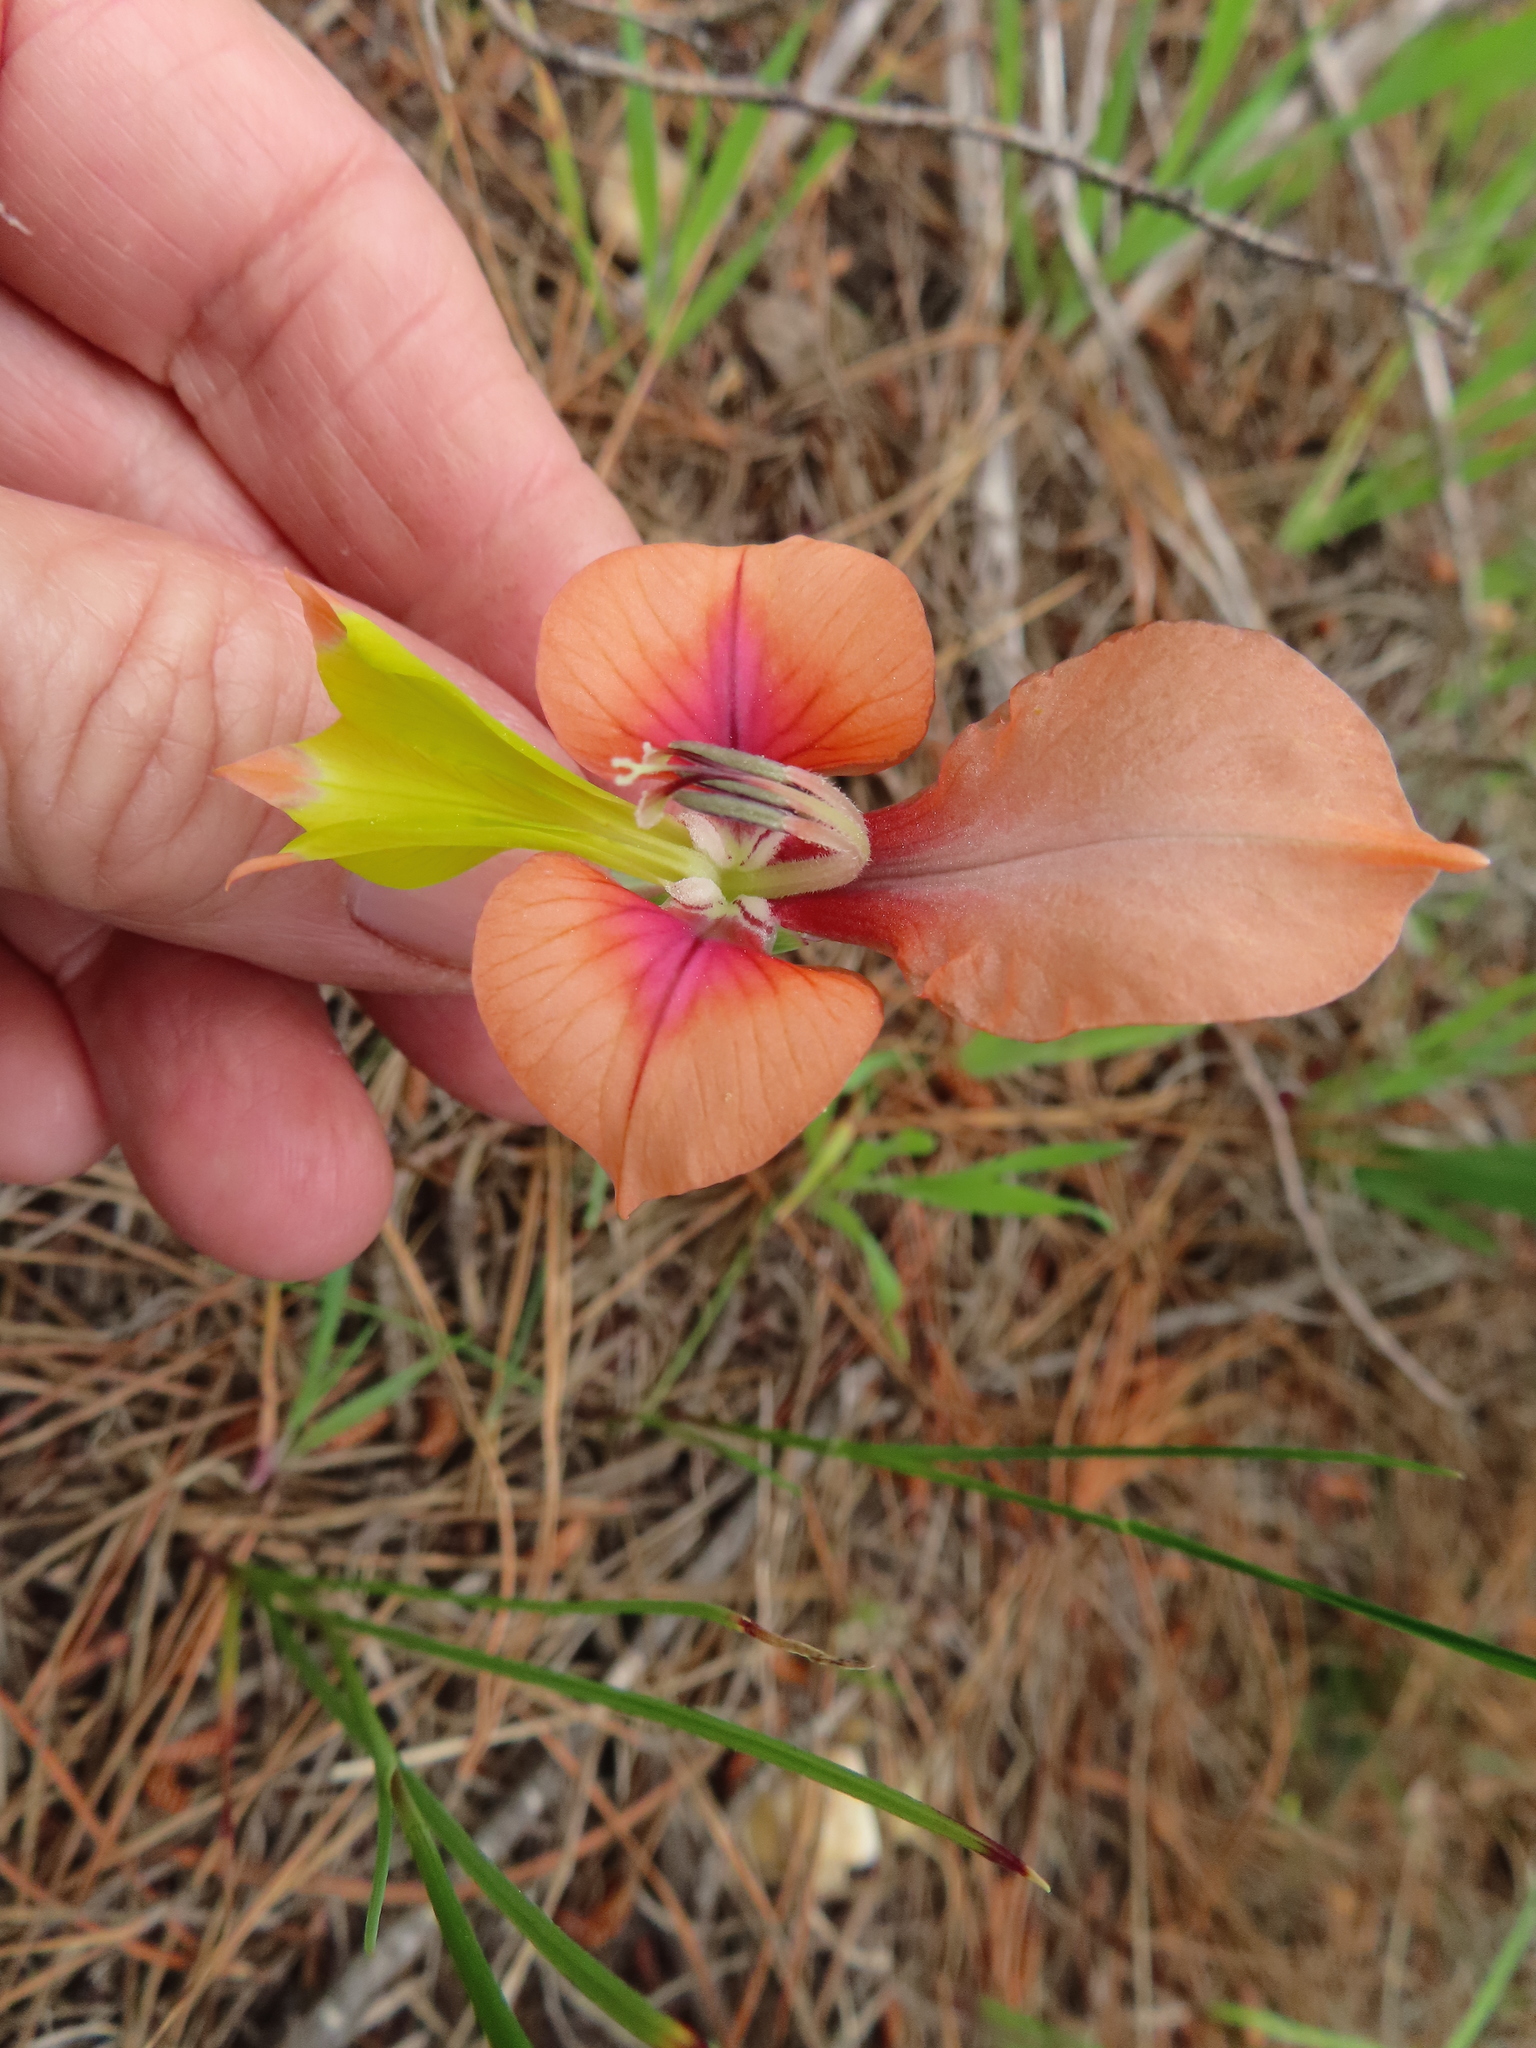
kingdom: Plantae
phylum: Tracheophyta
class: Liliopsida
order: Asparagales
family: Iridaceae
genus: Gladiolus
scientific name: Gladiolus alatus
